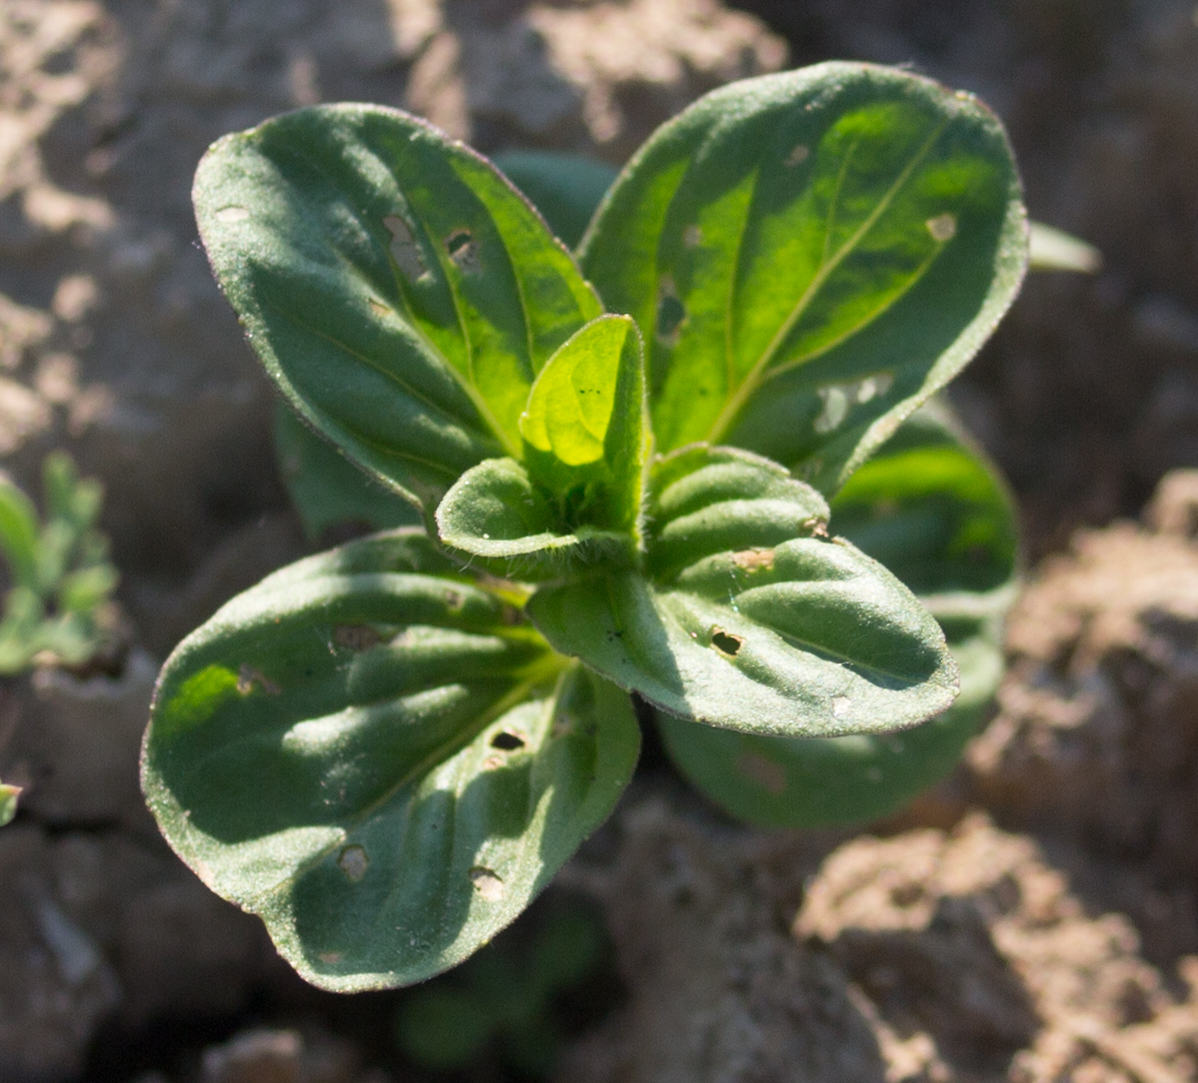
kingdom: Plantae
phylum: Tracheophyta
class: Magnoliopsida
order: Lamiales
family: Lamiaceae
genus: Mentha
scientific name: Mentha arvensis
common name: Corn mint
